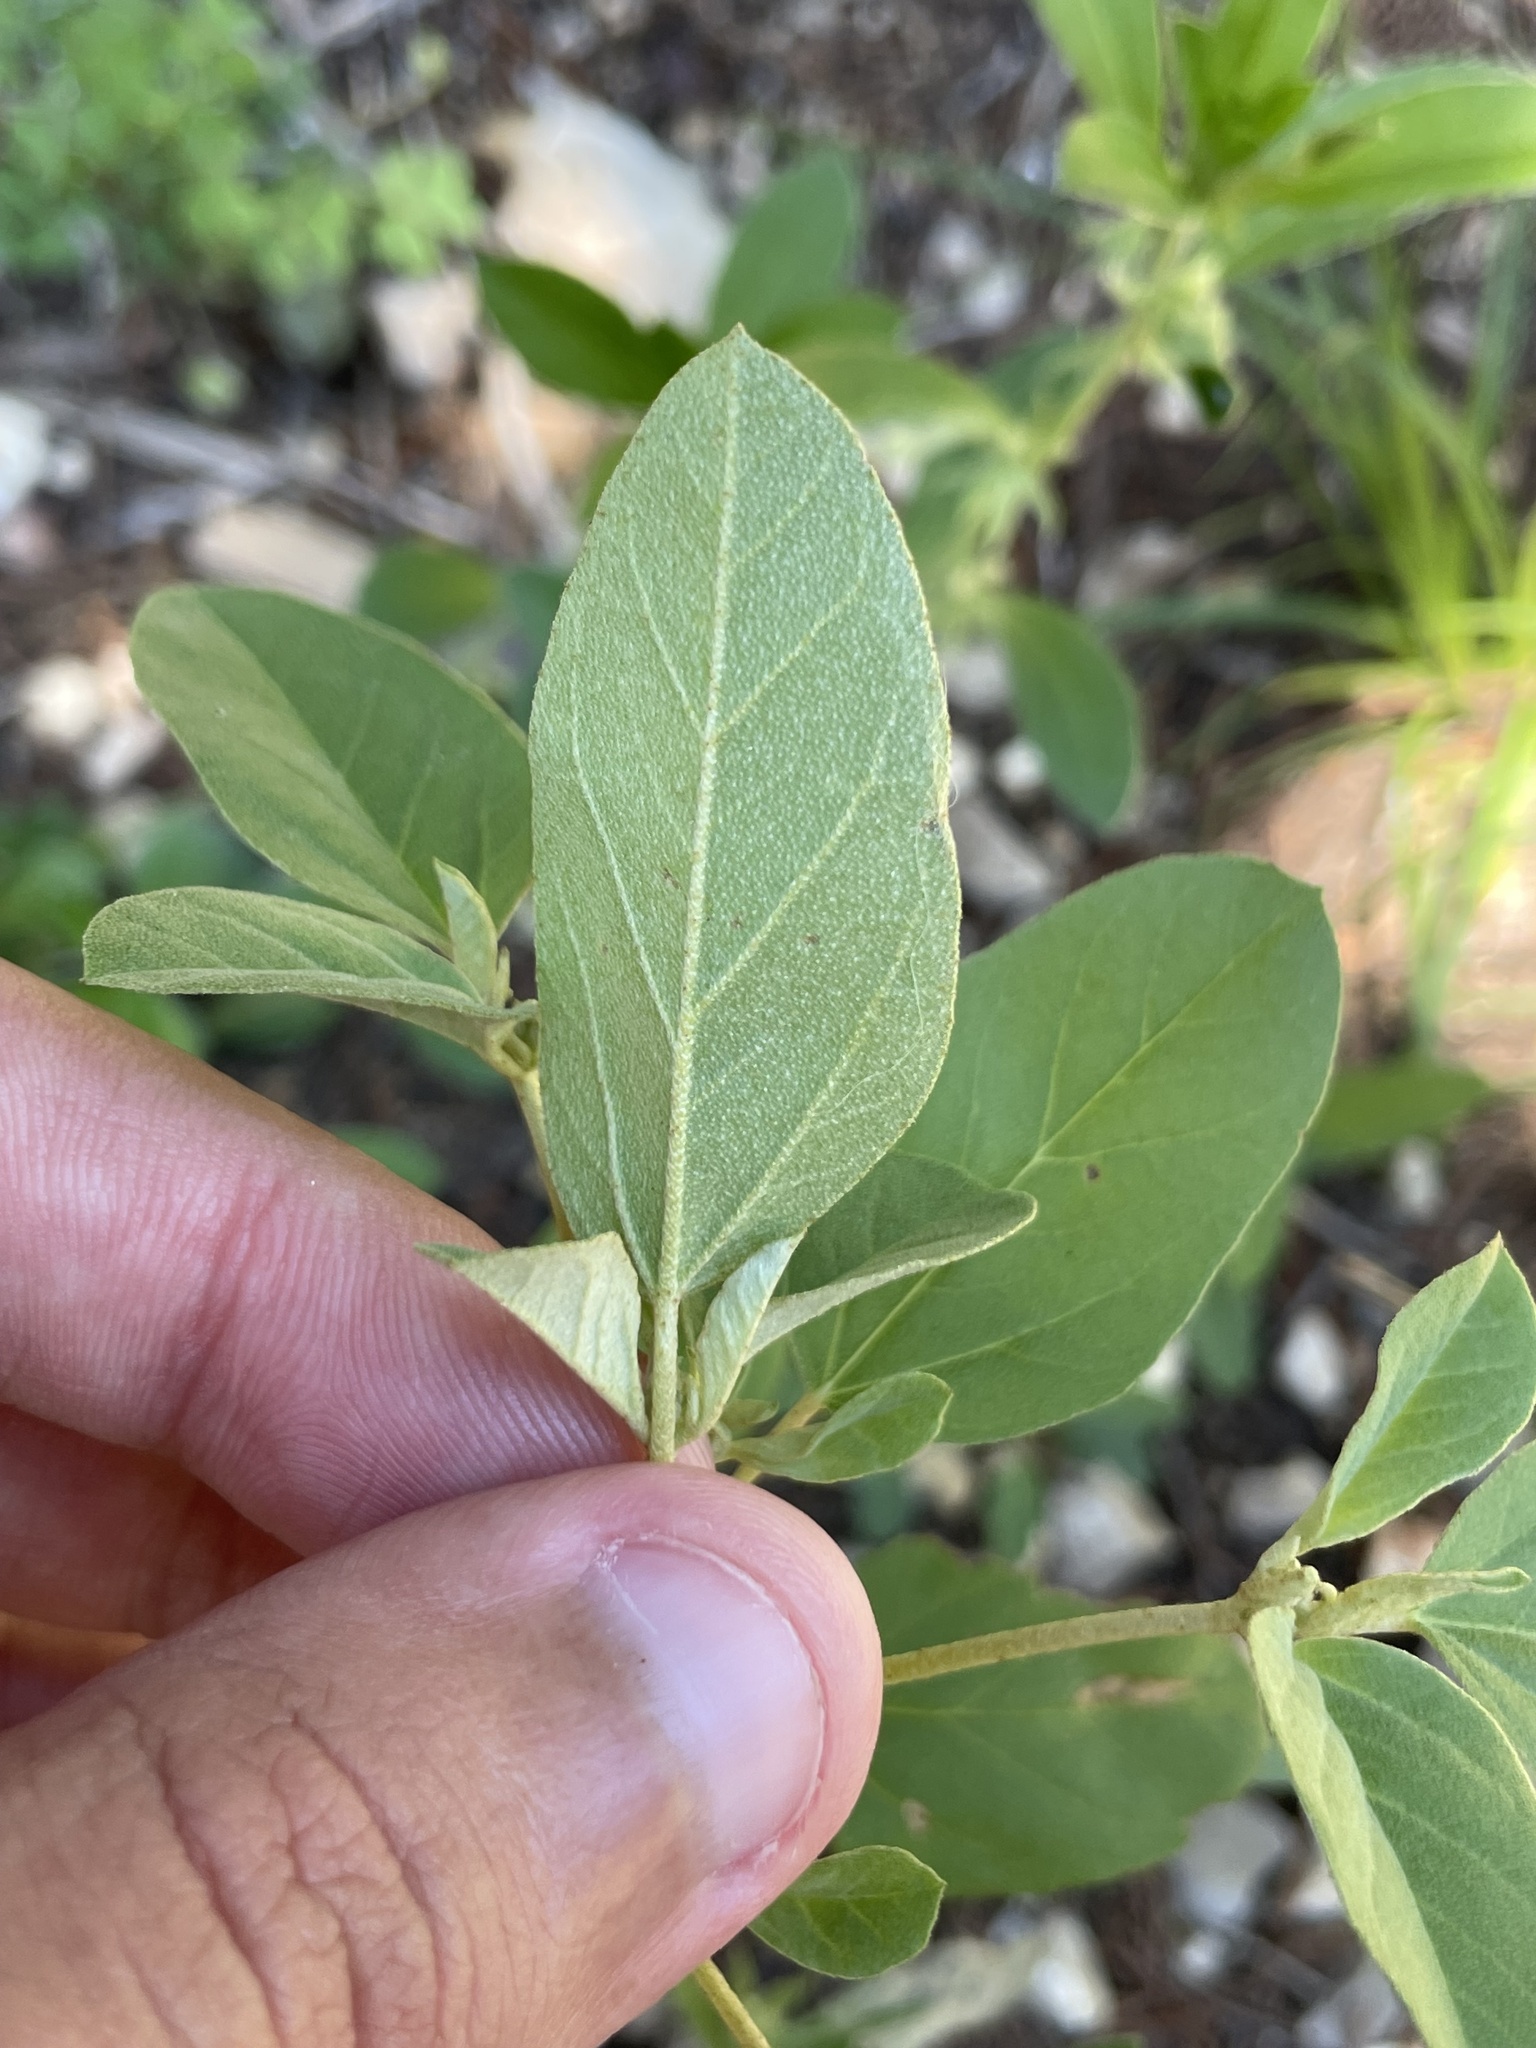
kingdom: Plantae
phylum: Tracheophyta
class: Magnoliopsida
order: Malpighiales
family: Euphorbiaceae
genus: Croton
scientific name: Croton monanthogynus
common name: One-seed croton
